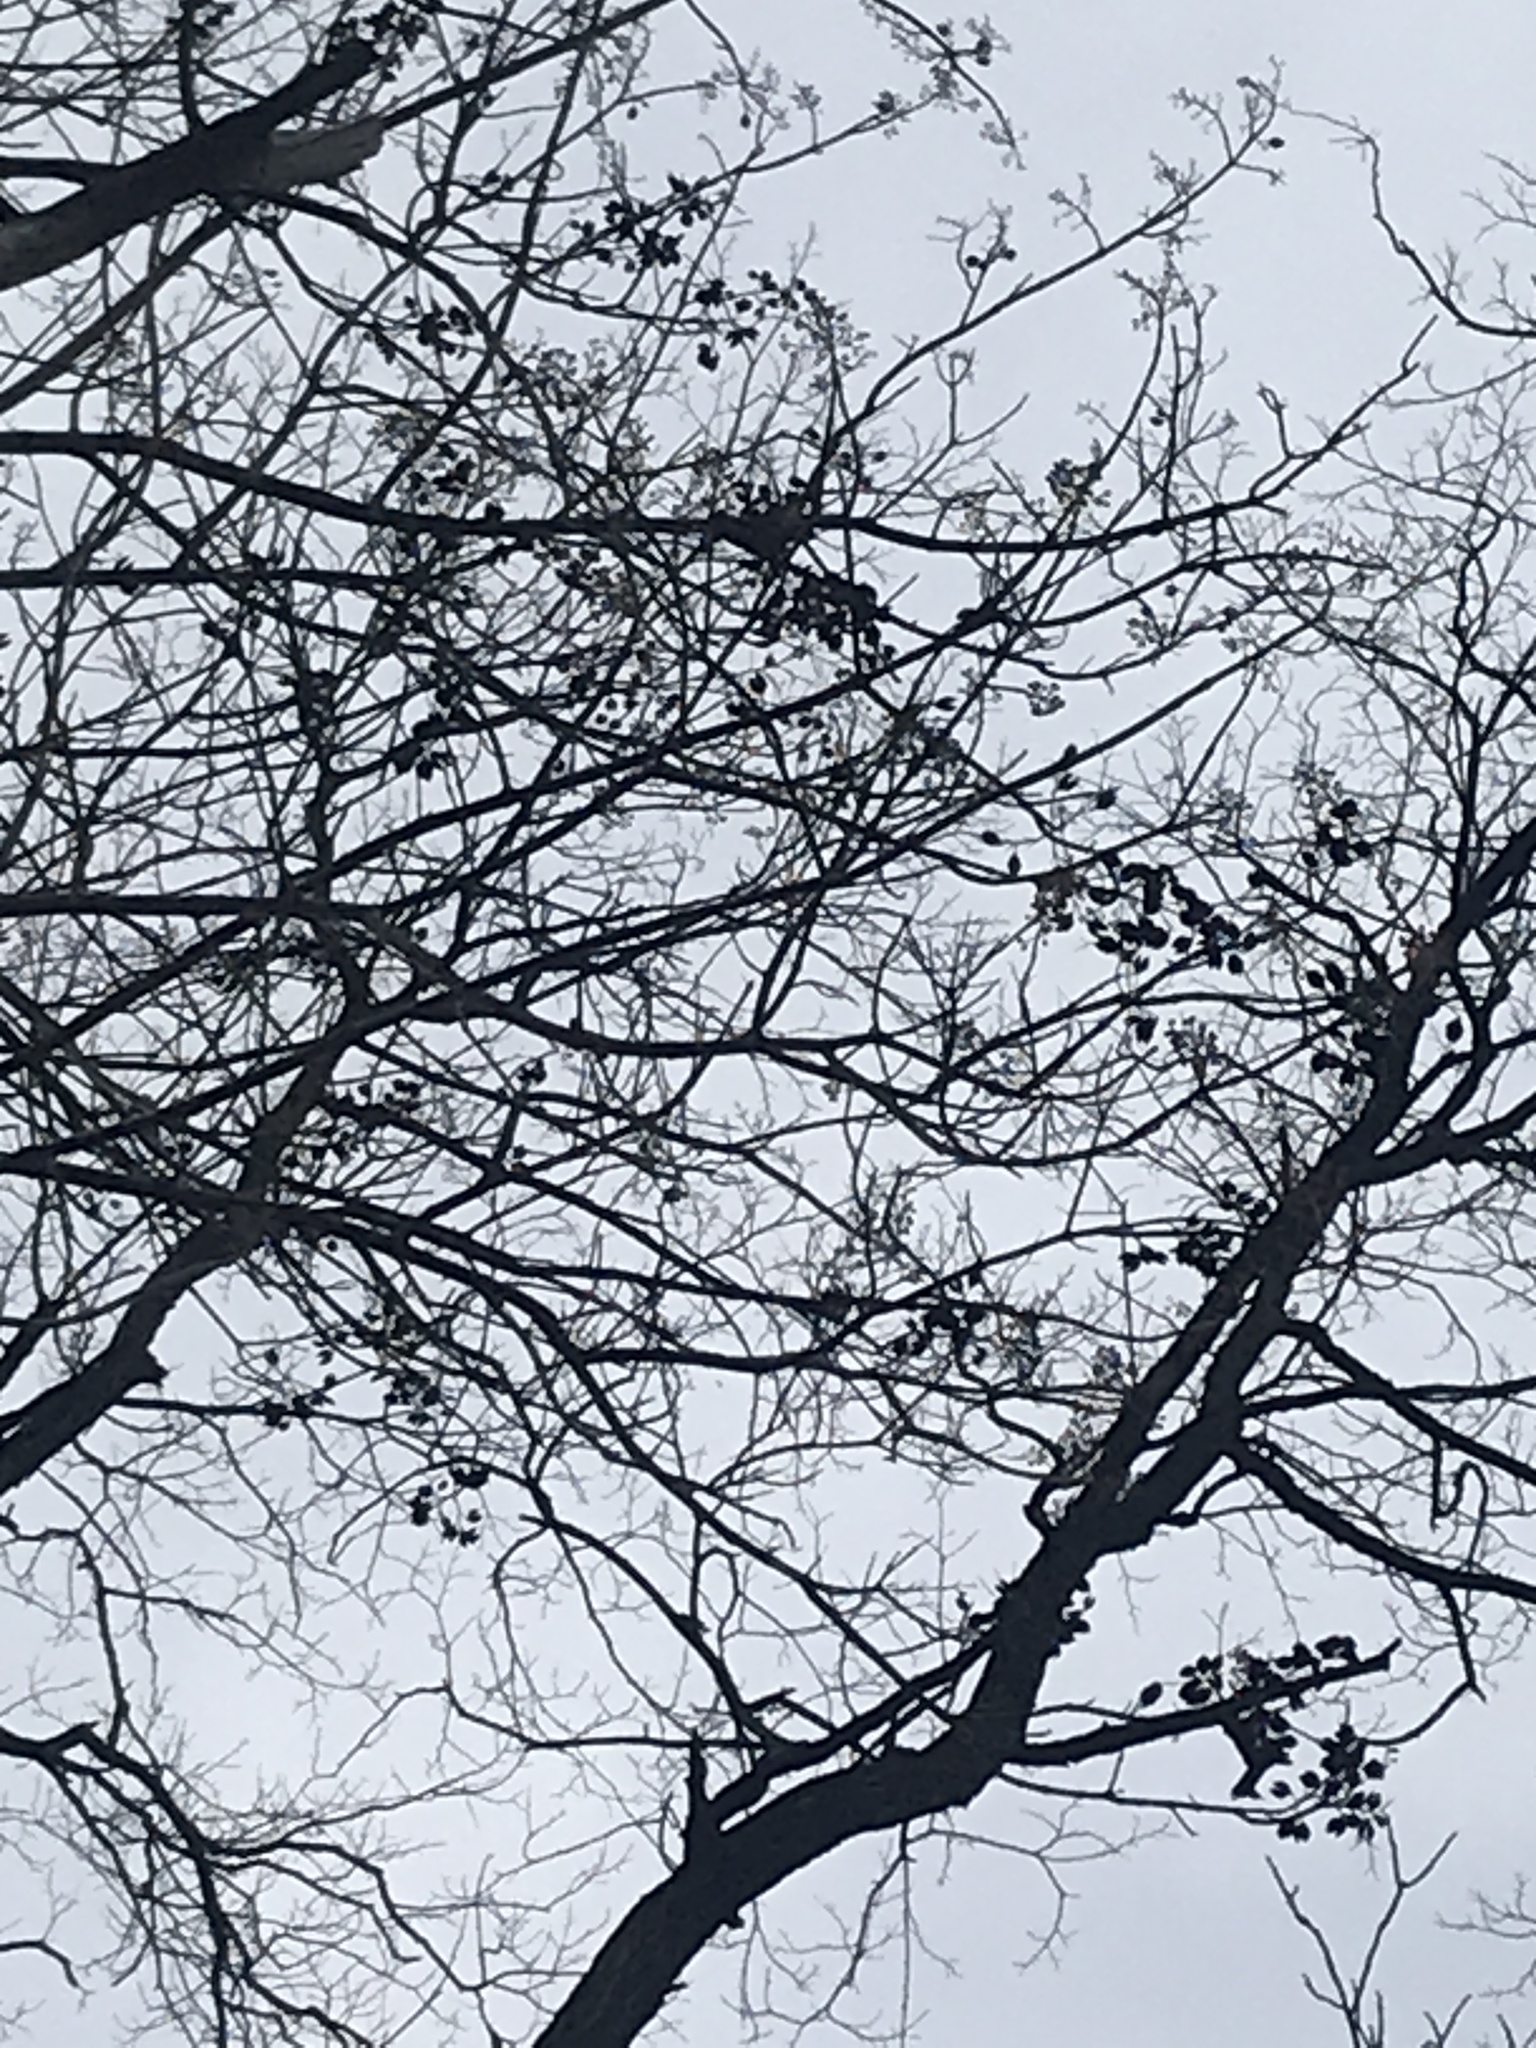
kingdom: Plantae
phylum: Tracheophyta
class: Magnoliopsida
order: Lamiales
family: Paulowniaceae
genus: Paulownia
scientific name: Paulownia tomentosa
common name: Foxglove-tree
